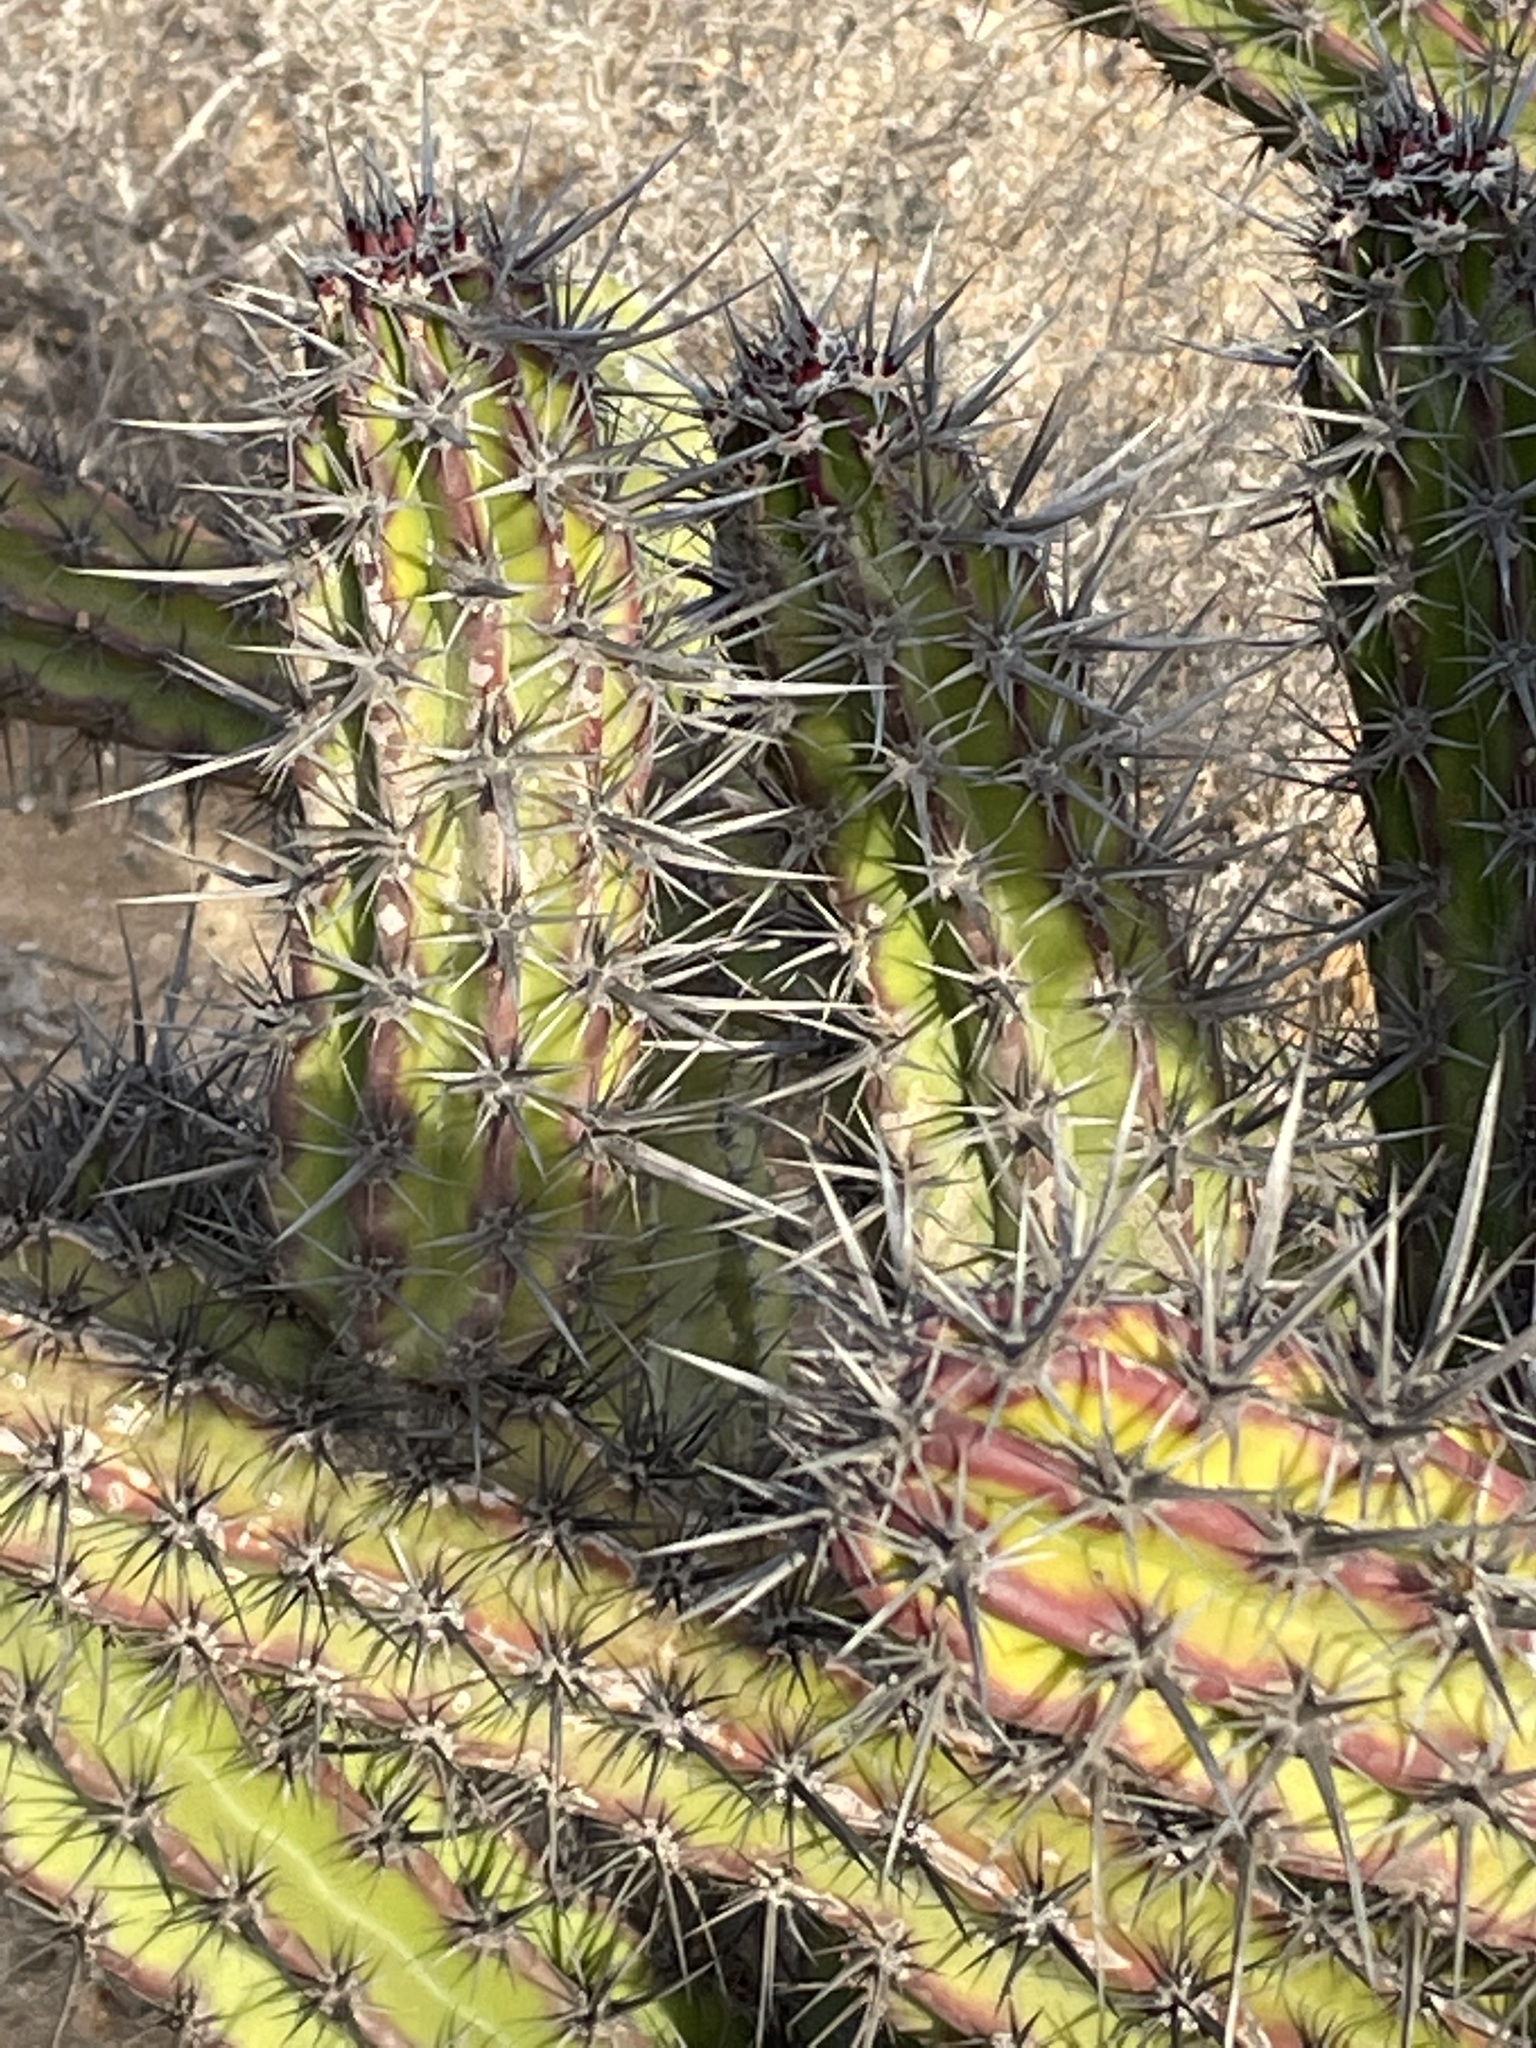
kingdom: Plantae
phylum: Tracheophyta
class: Magnoliopsida
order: Caryophyllales
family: Cactaceae
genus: Stenocereus
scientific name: Stenocereus gummosus
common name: Dagger cactus
